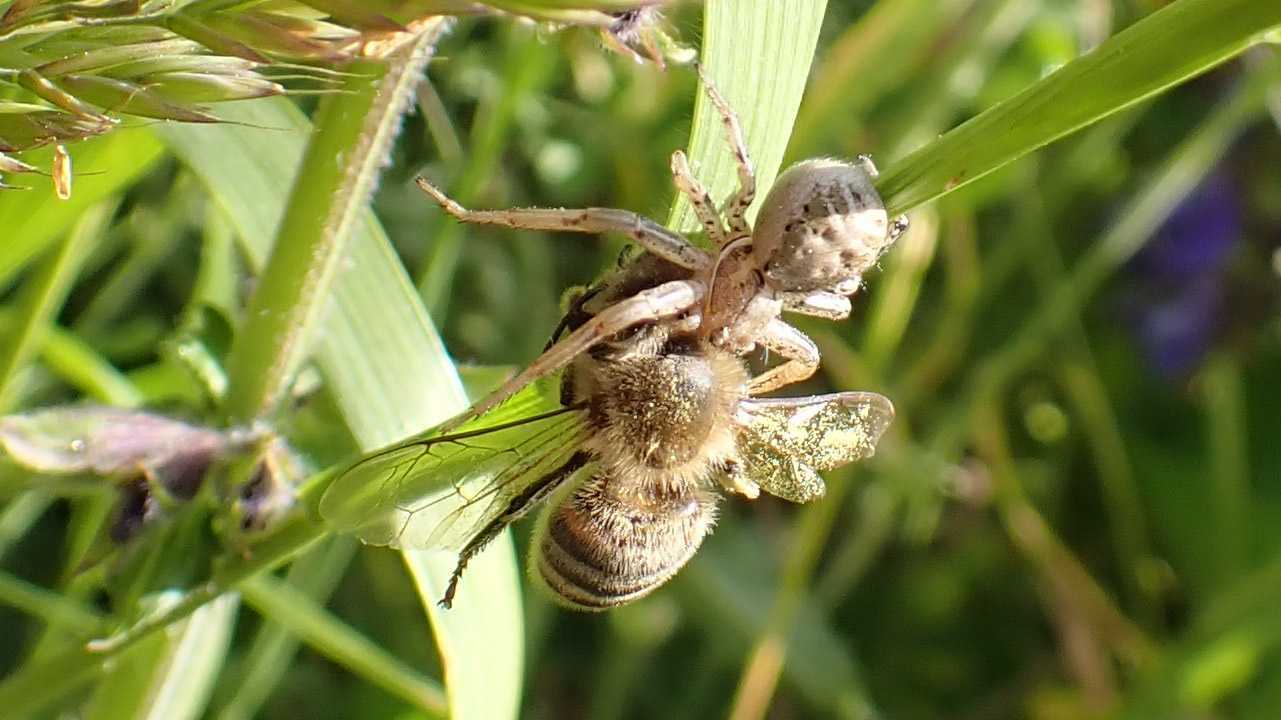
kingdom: Animalia
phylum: Arthropoda
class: Arachnida
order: Araneae
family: Thomisidae
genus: Xysticus
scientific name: Xysticus
